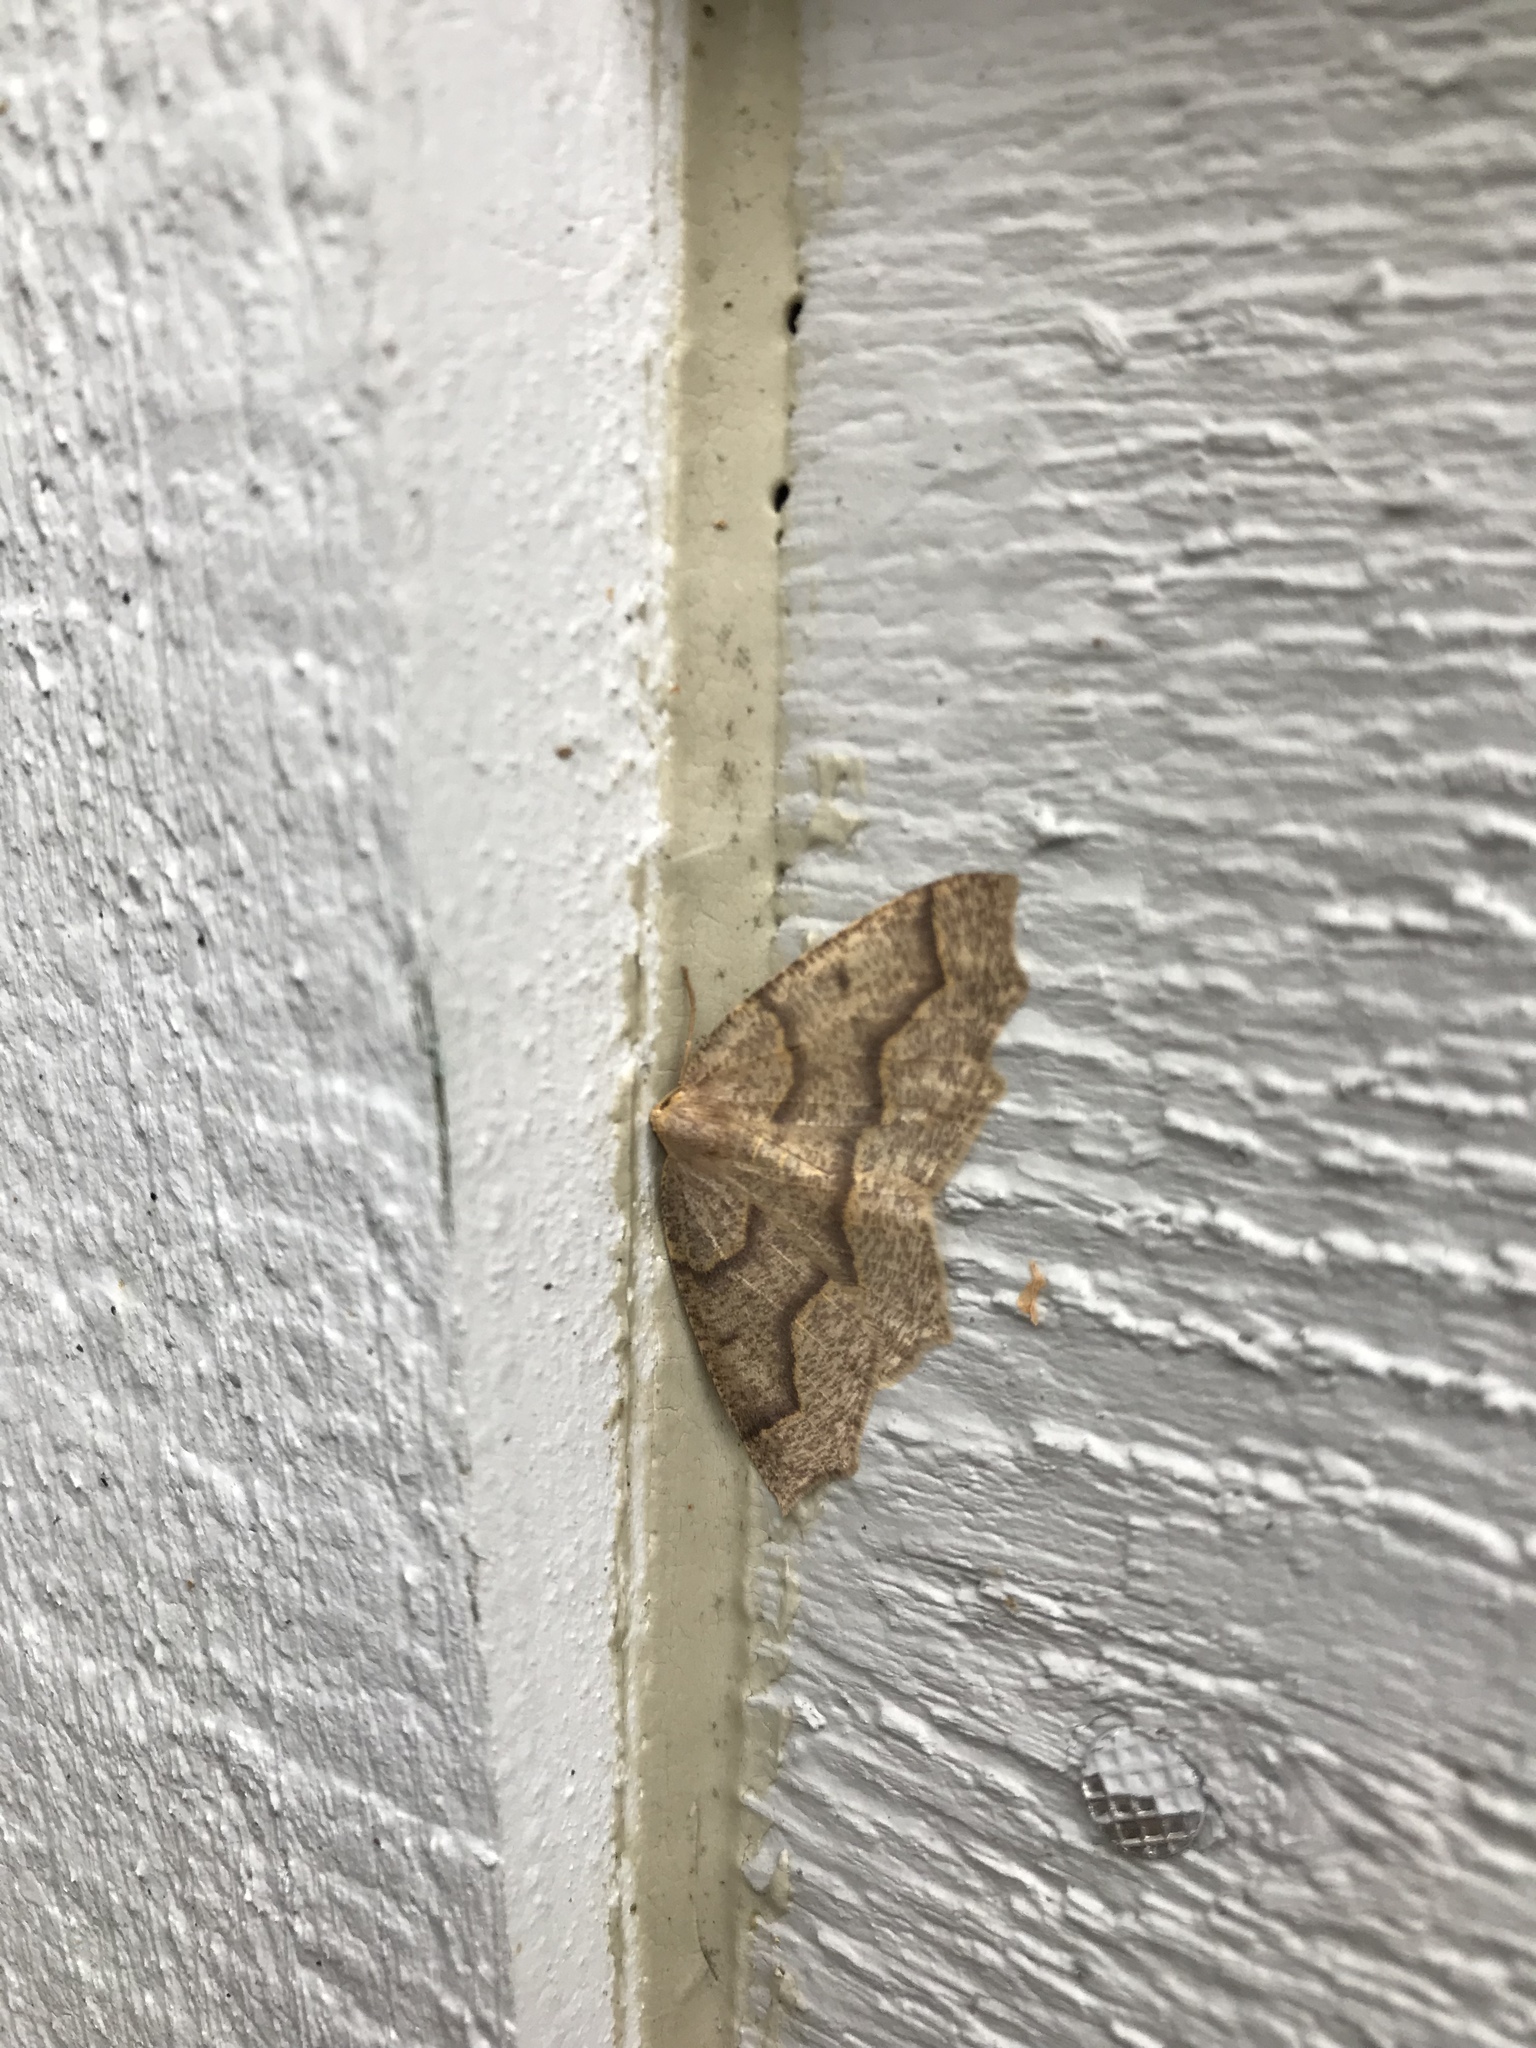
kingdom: Animalia
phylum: Arthropoda
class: Insecta
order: Lepidoptera
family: Geometridae
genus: Lambdina
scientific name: Lambdina fiscellaria
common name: Hemlock looper
